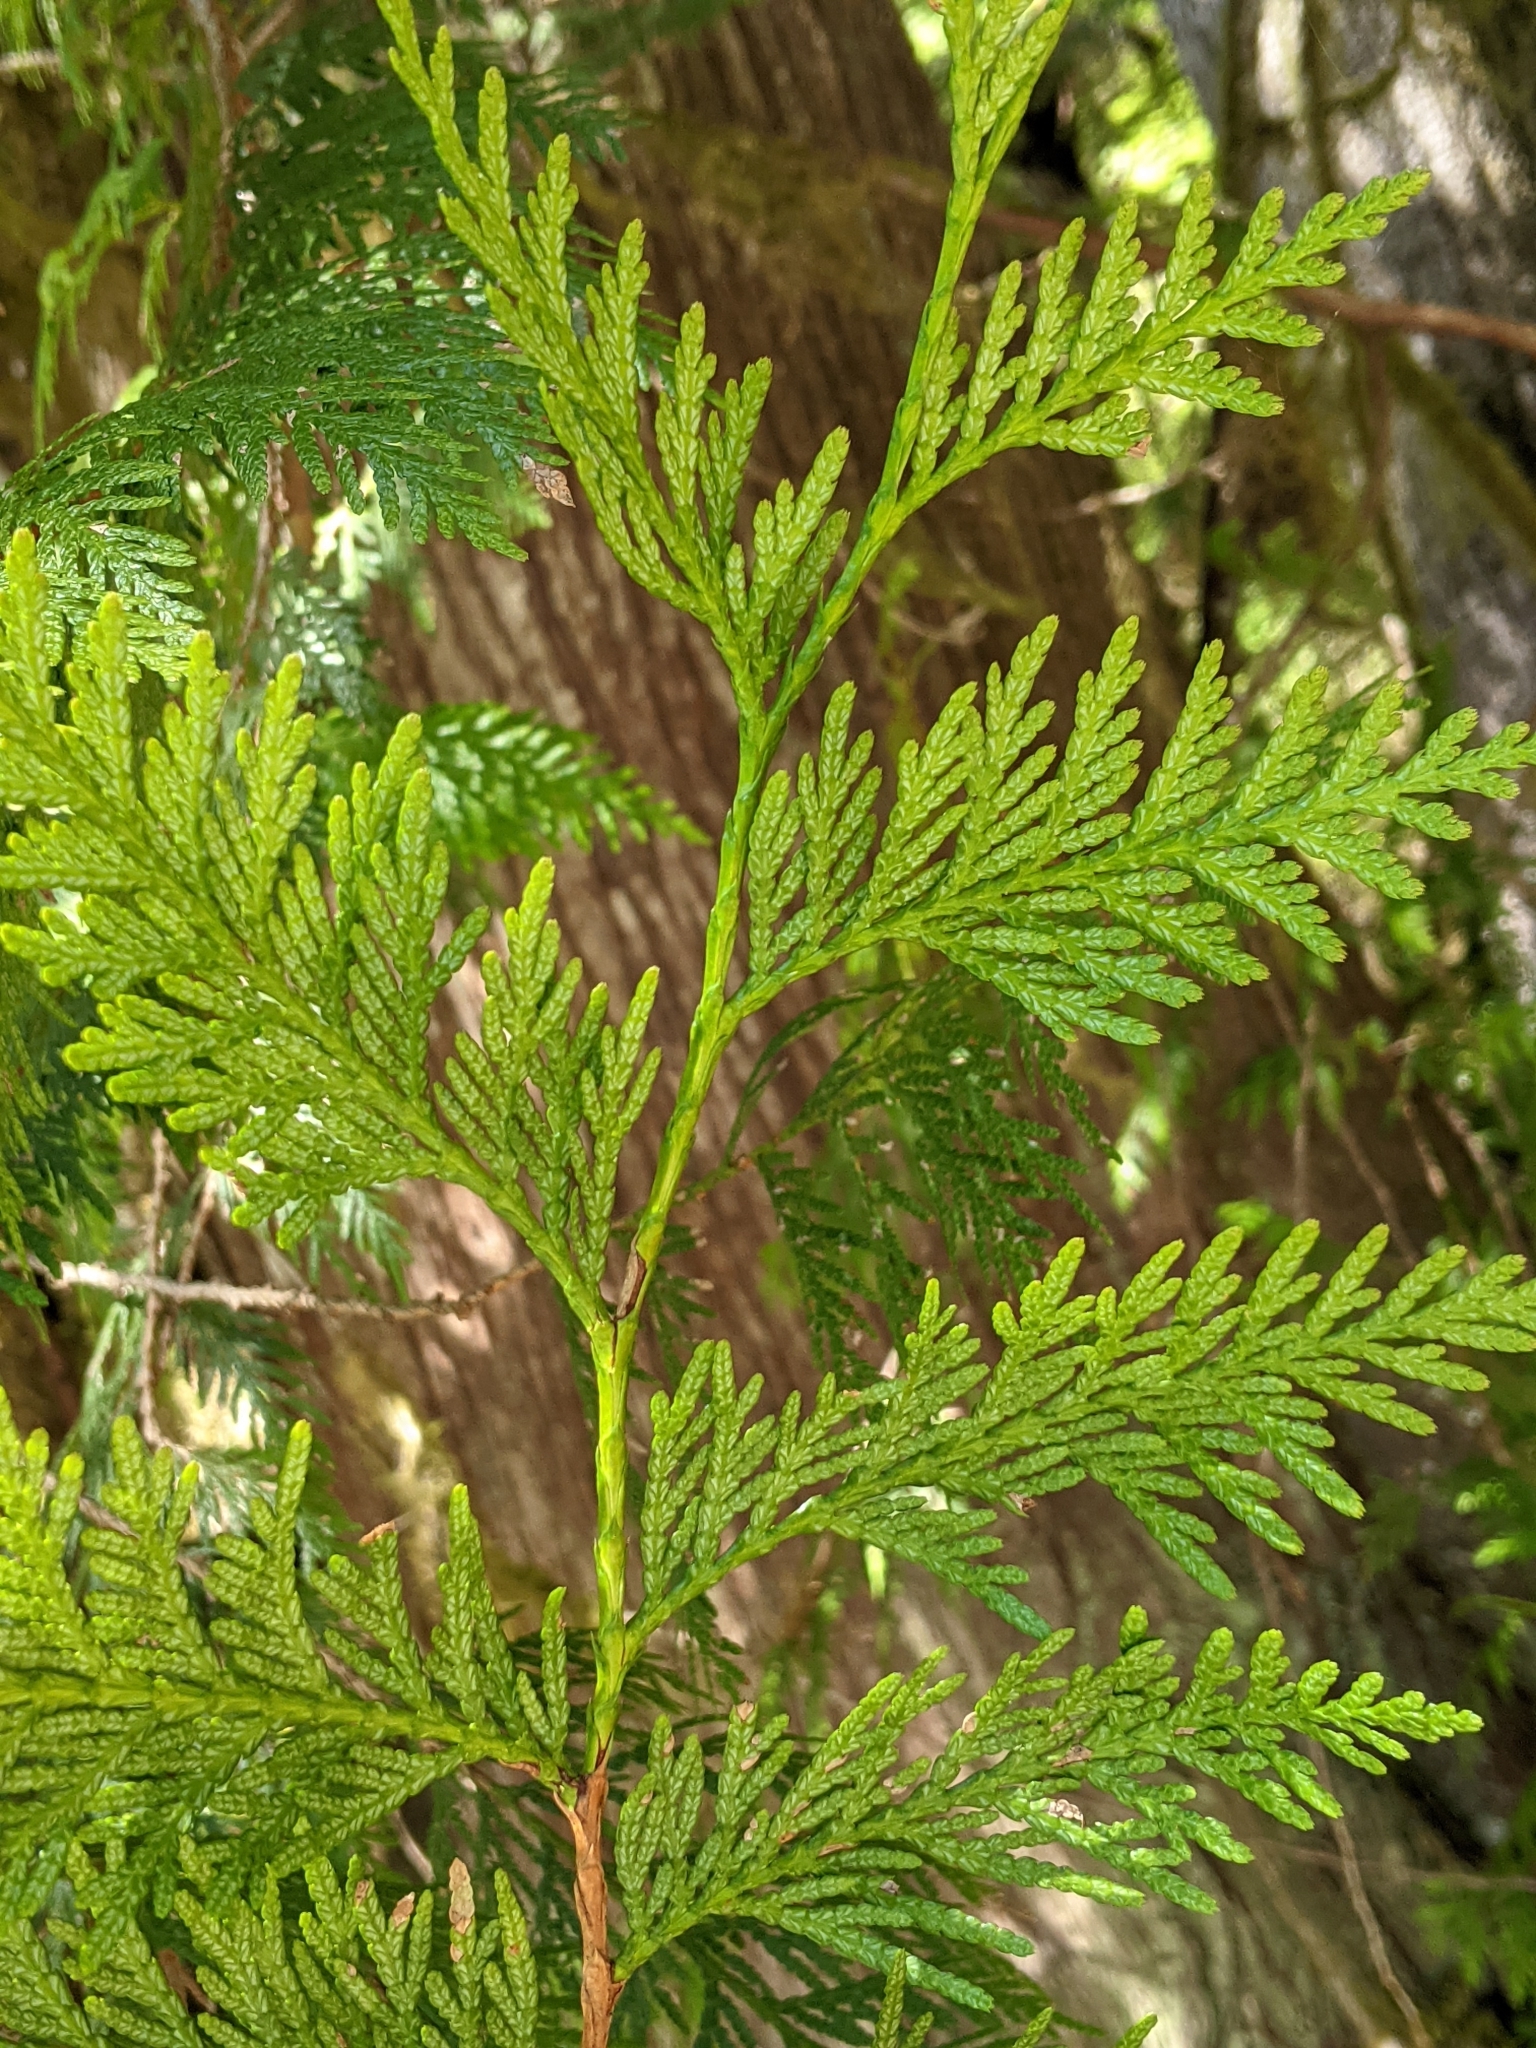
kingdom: Plantae
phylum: Tracheophyta
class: Pinopsida
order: Pinales
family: Cupressaceae
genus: Thuja
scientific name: Thuja plicata
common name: Western red-cedar
